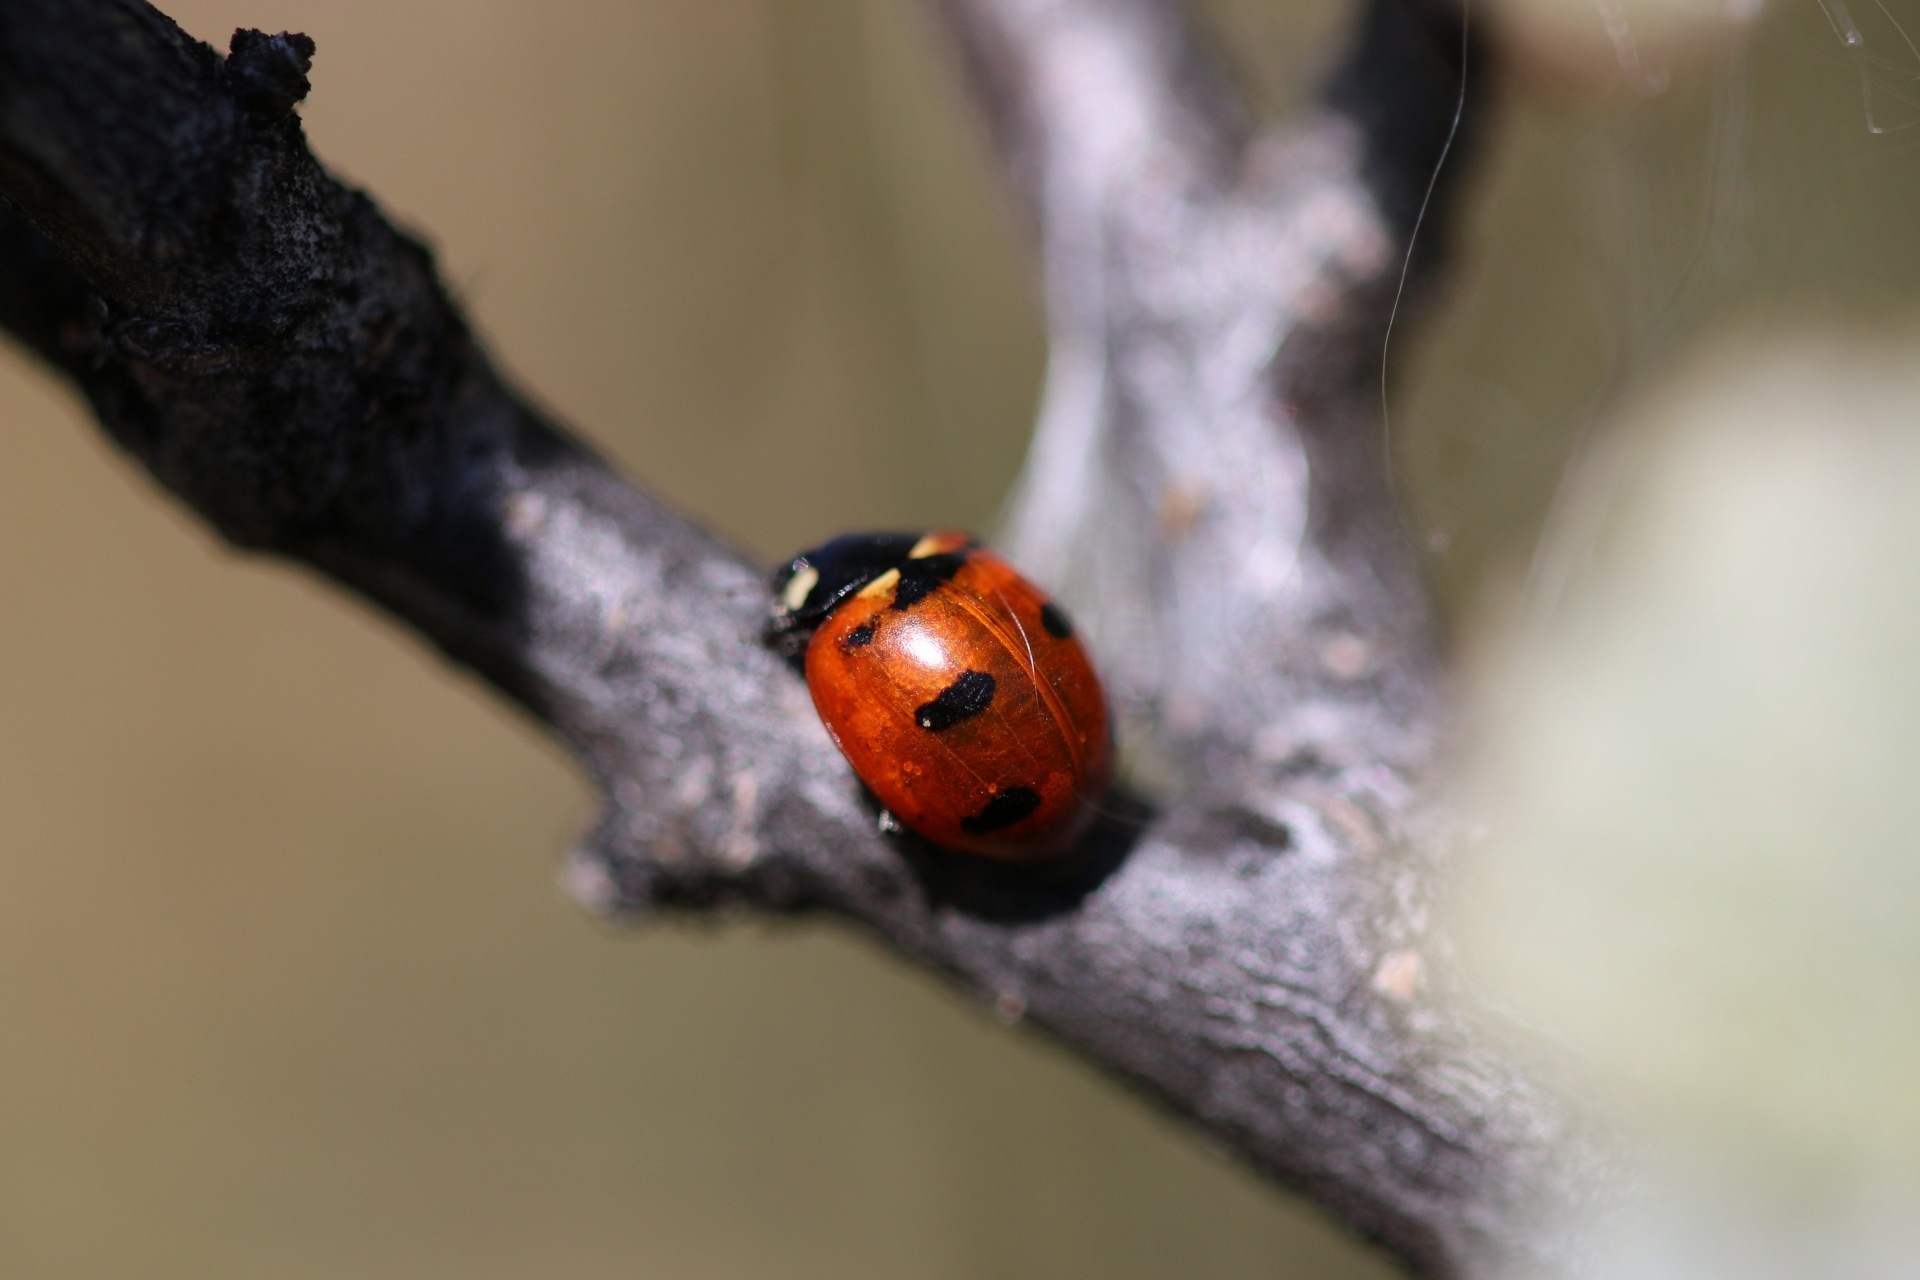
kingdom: Animalia
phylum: Arthropoda
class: Insecta
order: Coleoptera
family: Coccinellidae
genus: Coccinella
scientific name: Coccinella transversoguttata
